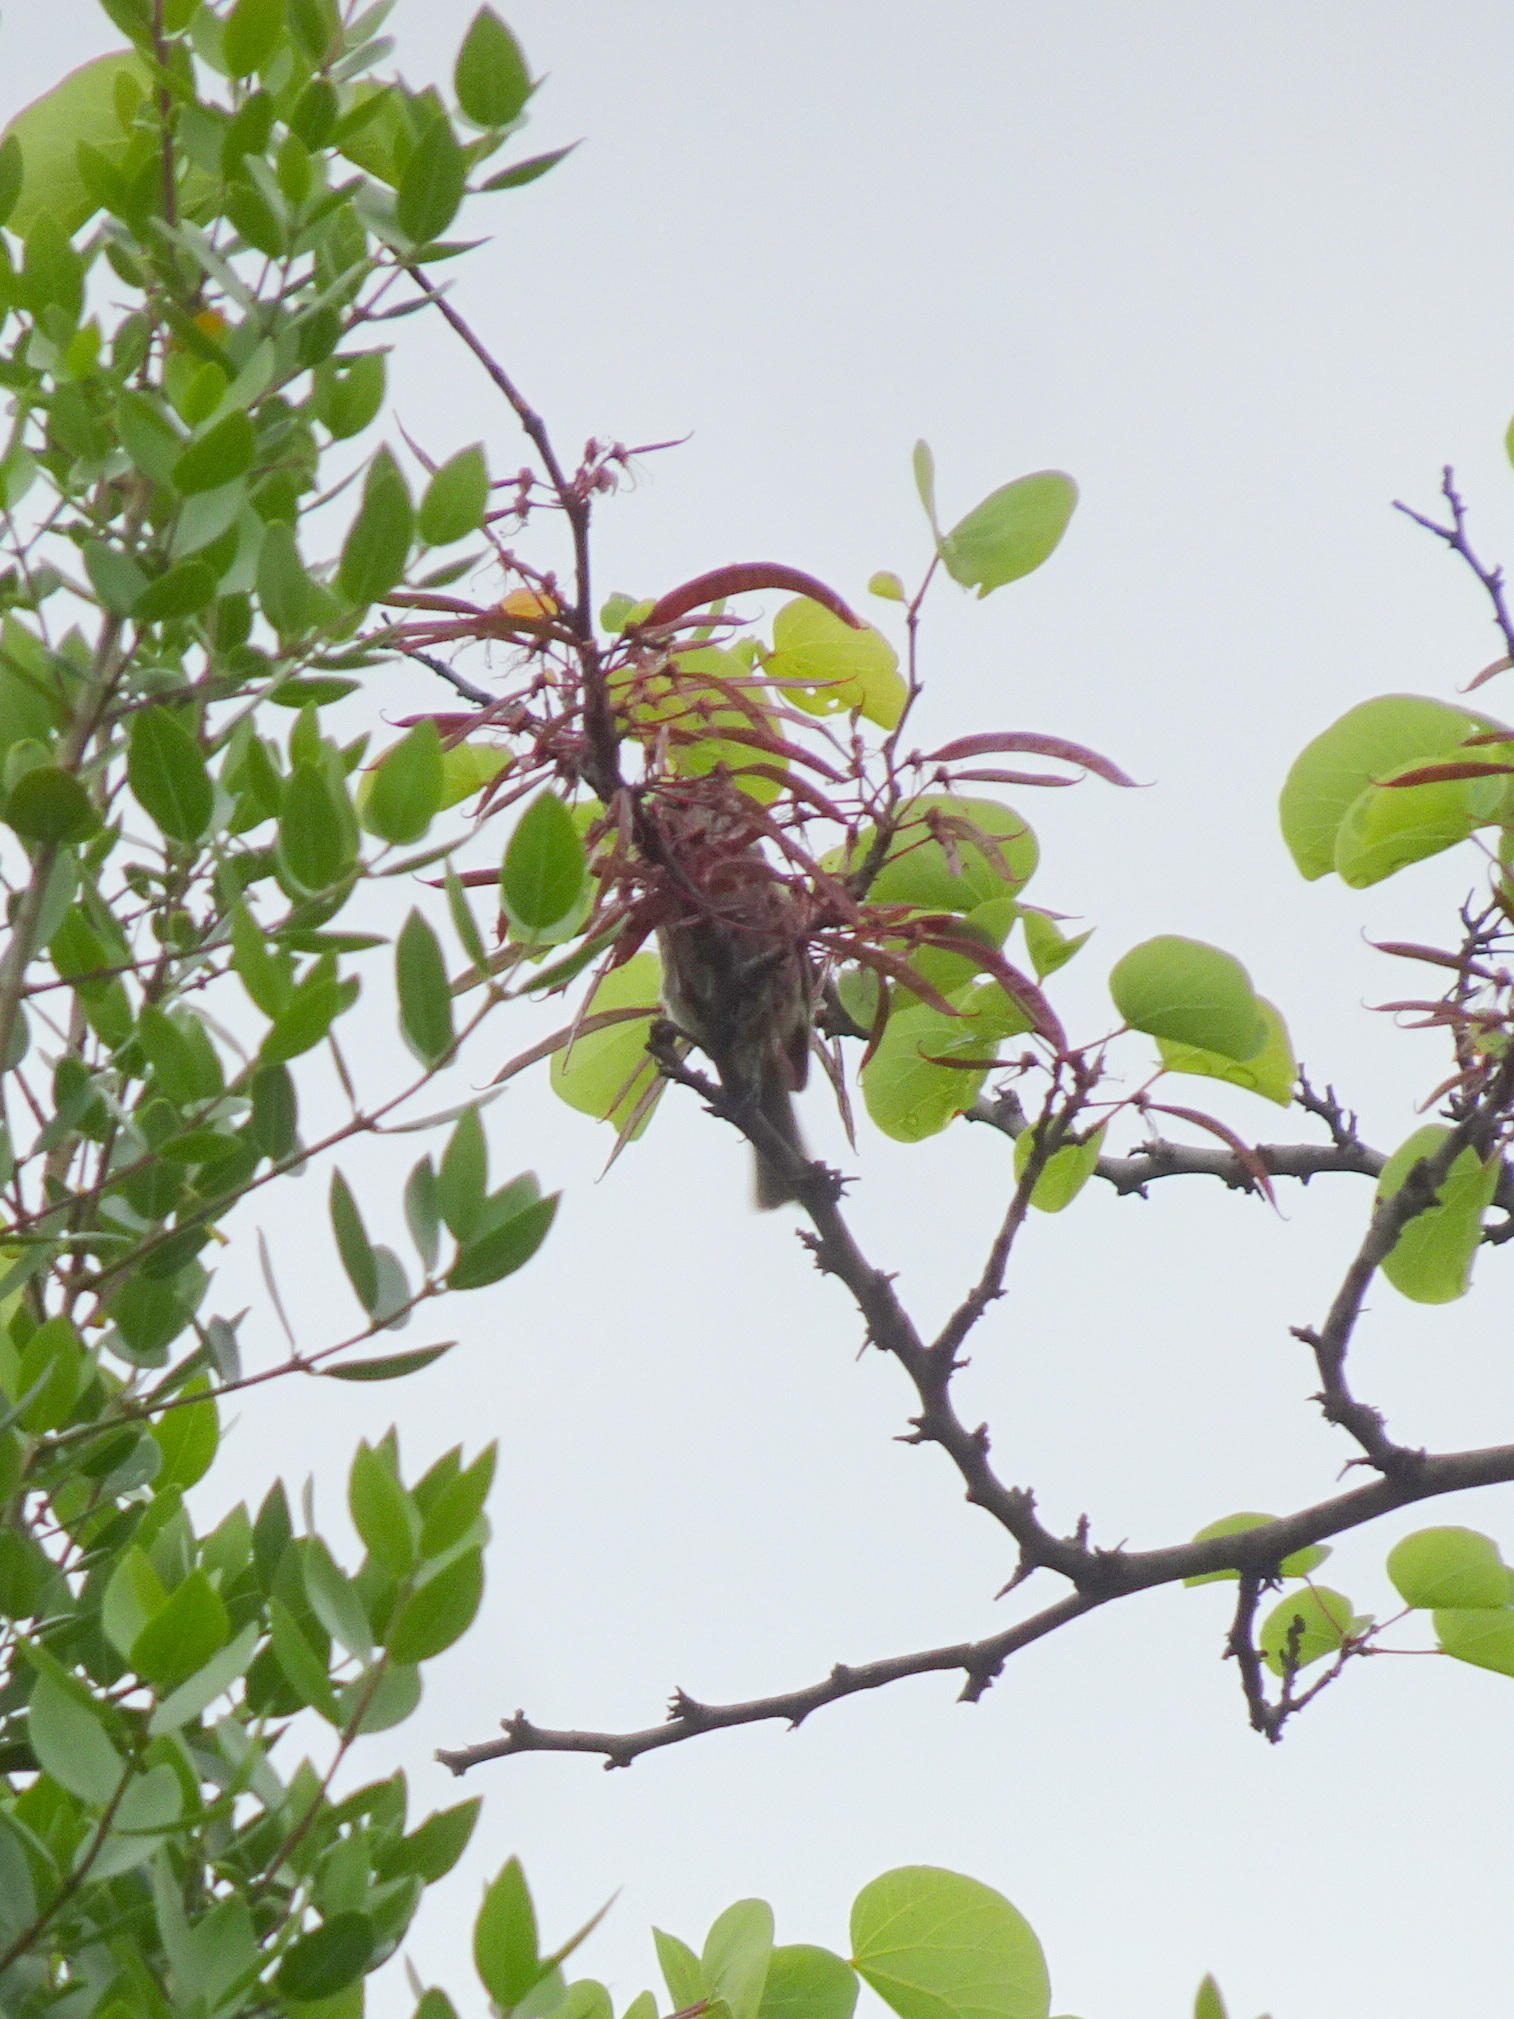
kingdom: Animalia
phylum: Chordata
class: Aves
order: Passeriformes
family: Paridae
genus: Lophophanes
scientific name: Lophophanes cristatus
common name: European crested tit
